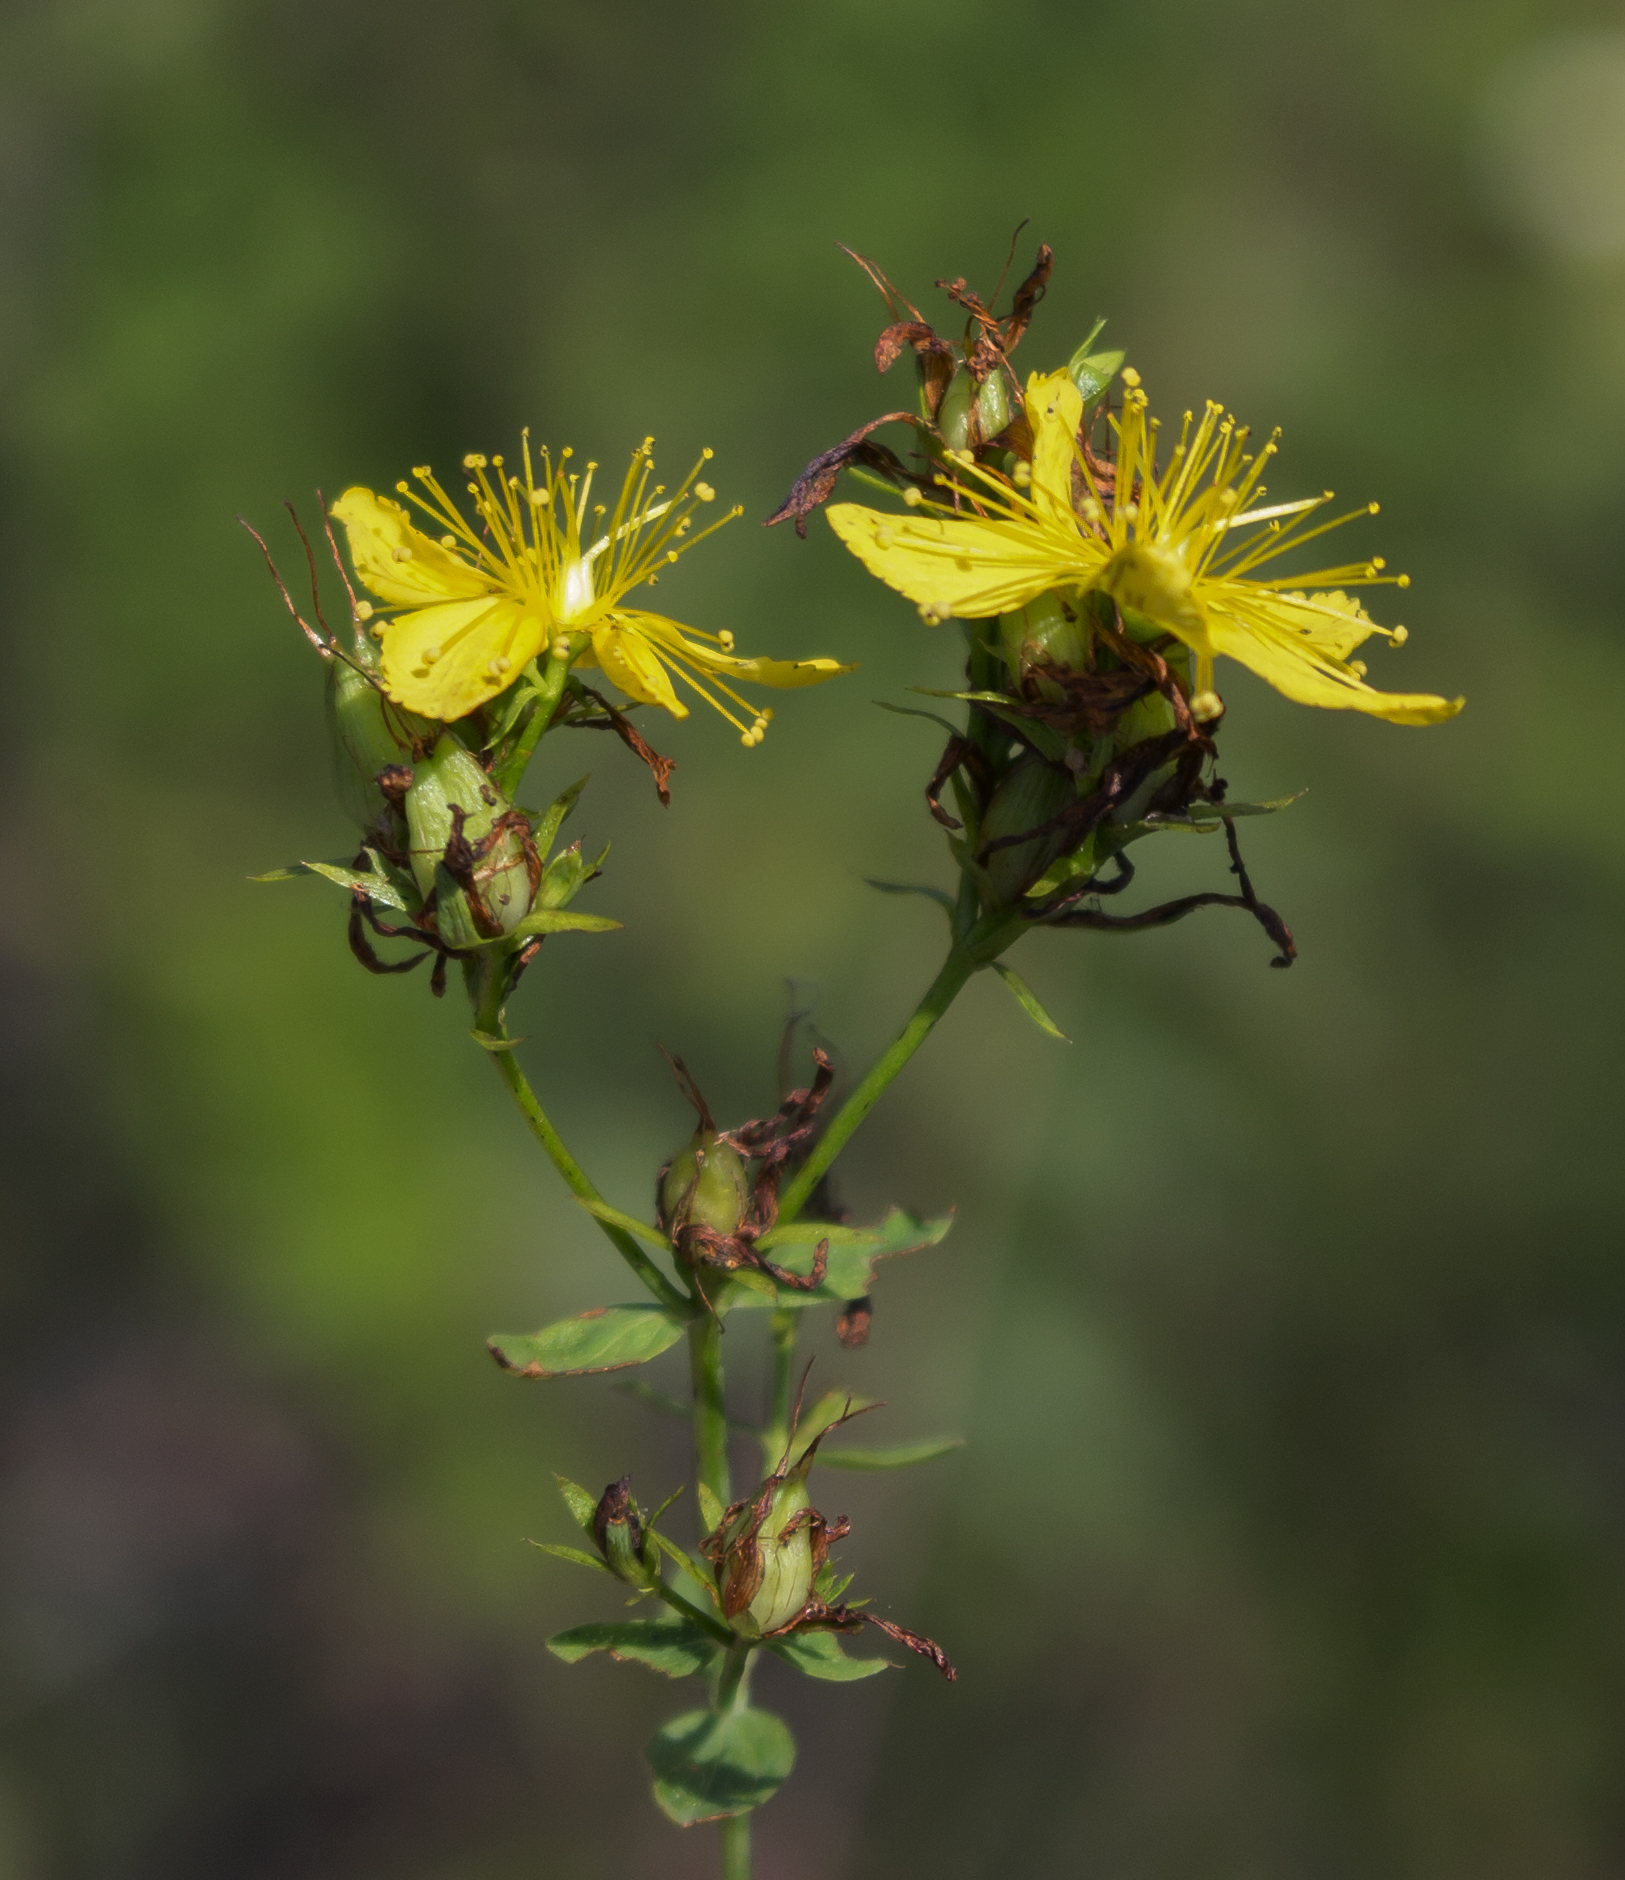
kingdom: Plantae
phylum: Tracheophyta
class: Magnoliopsida
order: Malpighiales
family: Hypericaceae
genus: Hypericum
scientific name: Hypericum perforatum
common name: Common st. johnswort
